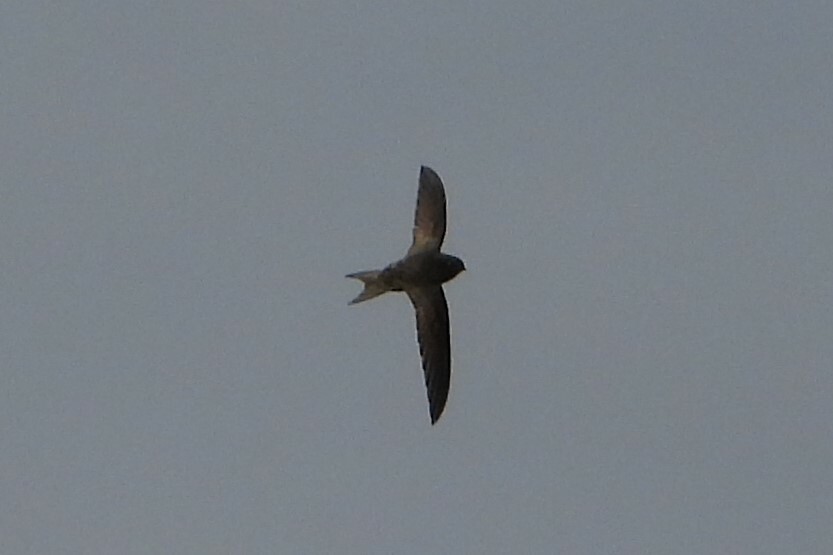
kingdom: Animalia
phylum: Chordata
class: Aves
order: Apodiformes
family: Apodidae
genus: Apus
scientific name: Apus apus
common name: Common swift
